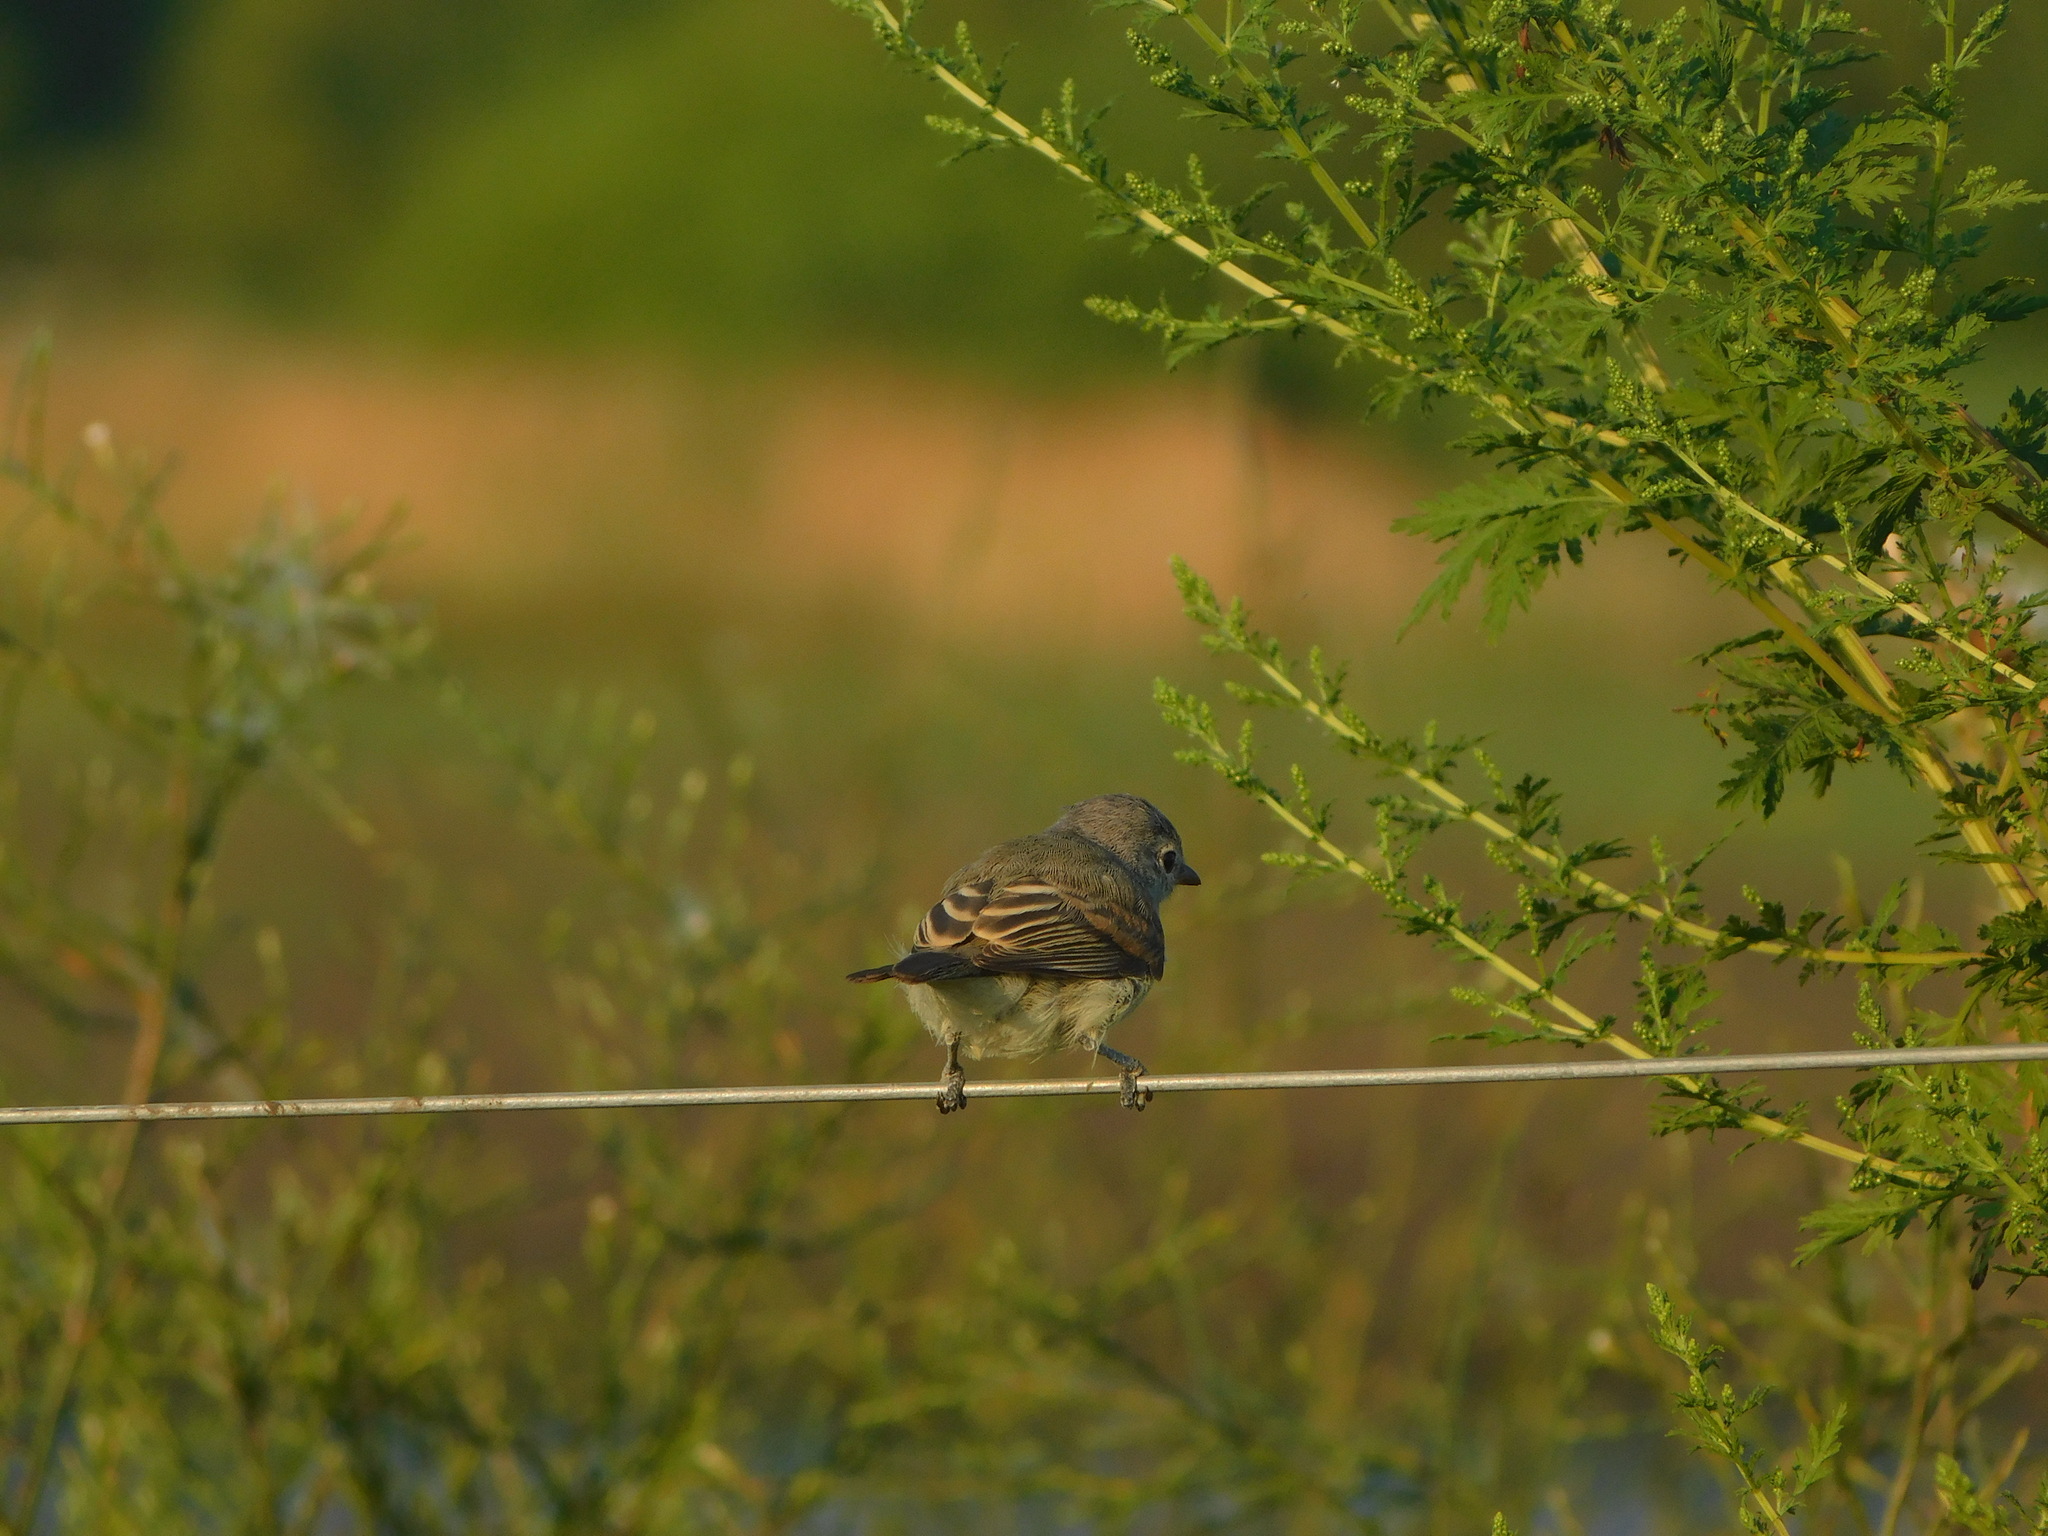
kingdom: Animalia
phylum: Chordata
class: Aves
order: Passeriformes
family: Tyrannidae
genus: Camptostoma
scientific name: Camptostoma obsoletum
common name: Southern beardless-tyrannulet
